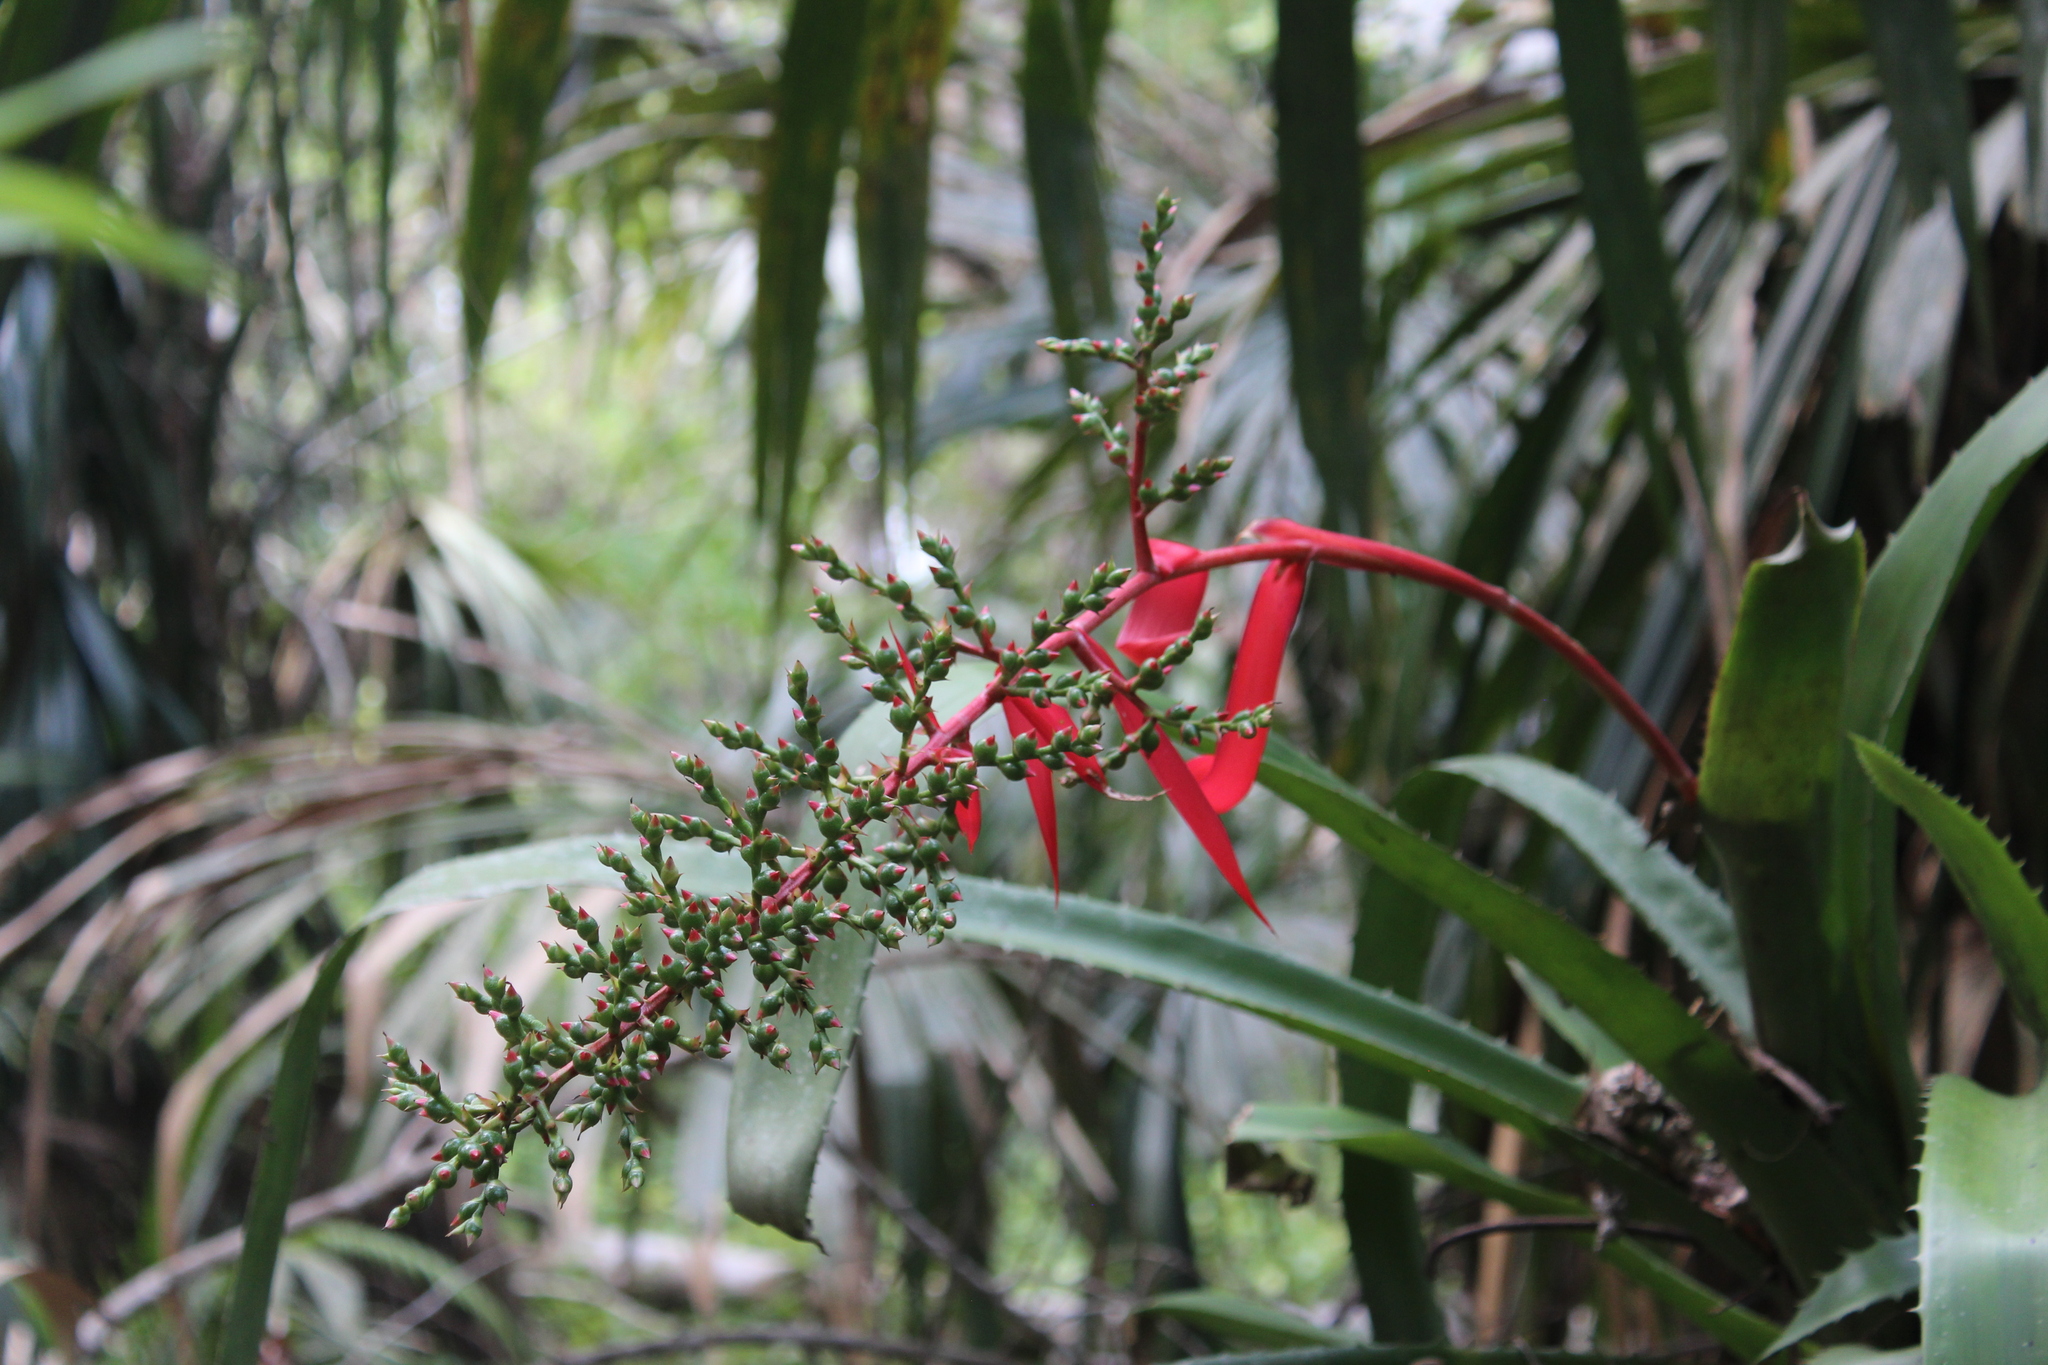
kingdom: Plantae
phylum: Tracheophyta
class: Liliopsida
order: Poales
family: Bromeliaceae
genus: Aechmea
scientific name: Aechmea bracteata
